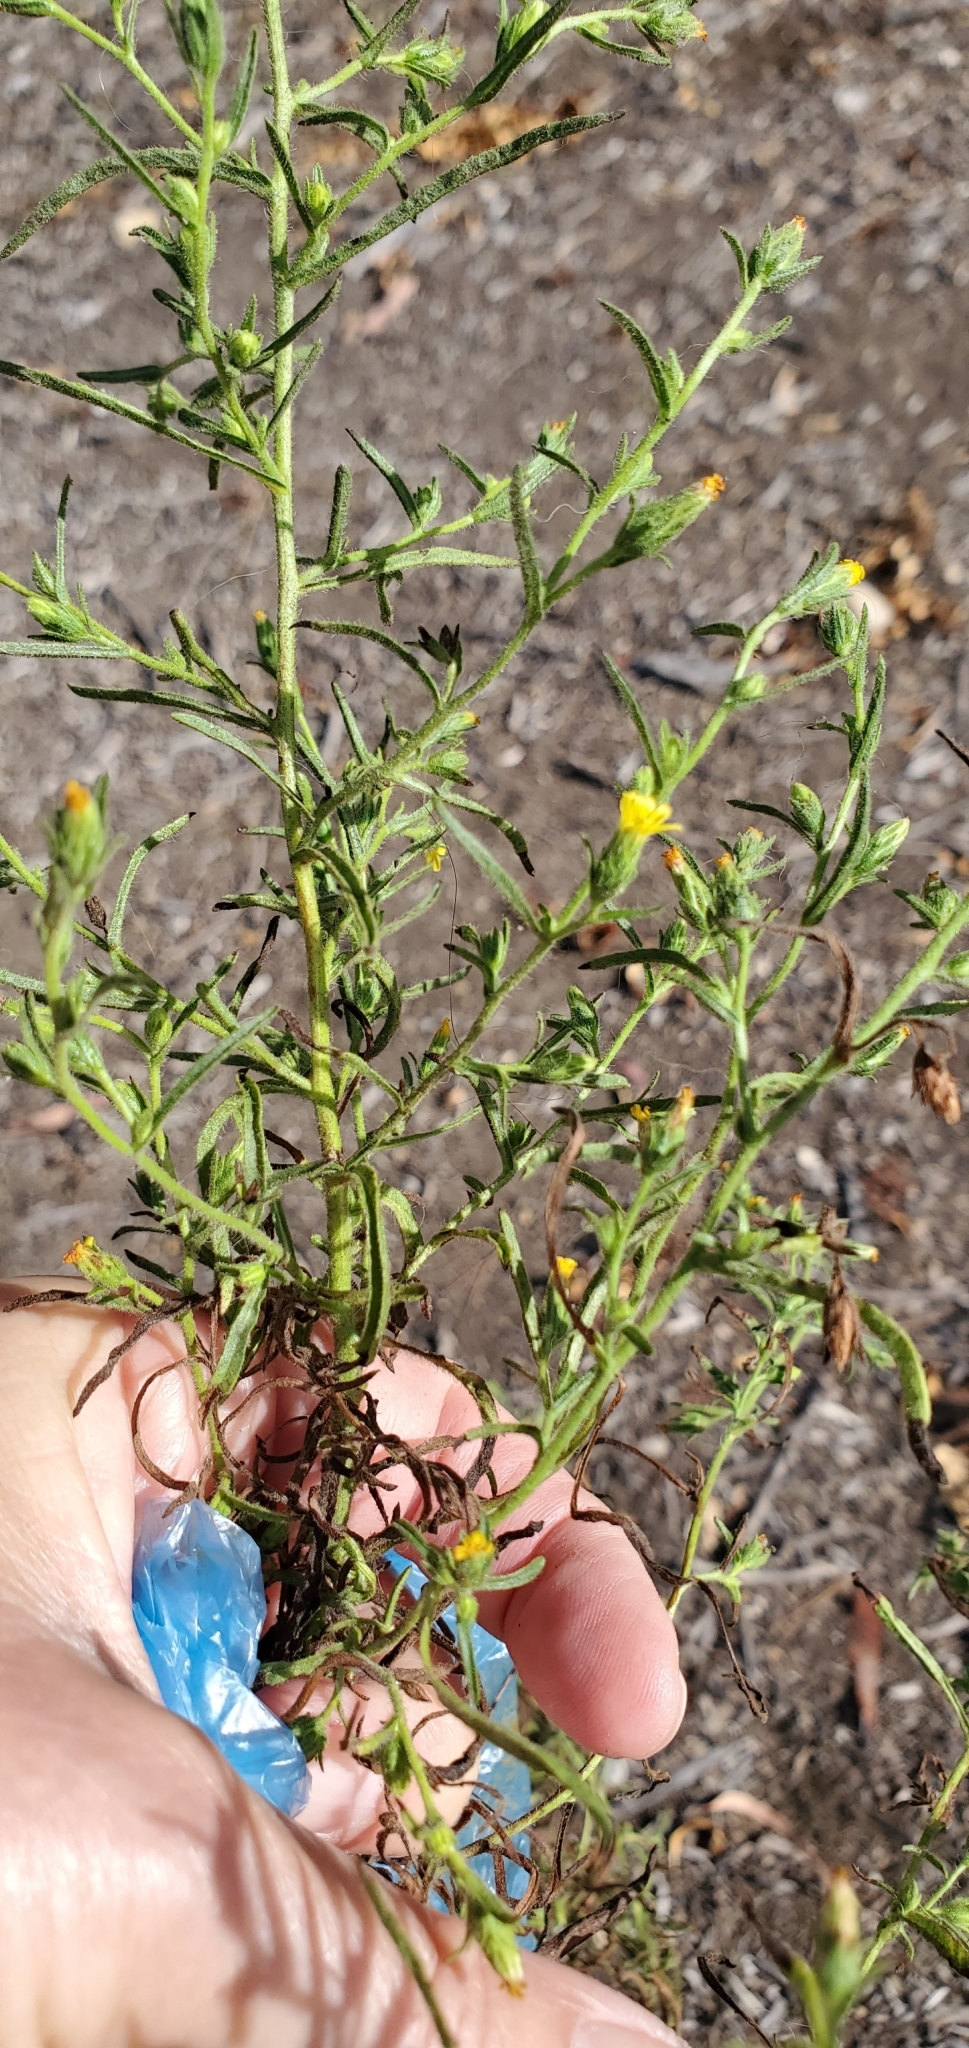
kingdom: Plantae
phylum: Tracheophyta
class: Magnoliopsida
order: Asterales
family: Asteraceae
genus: Dittrichia
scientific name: Dittrichia graveolens
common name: Stinking fleabane
